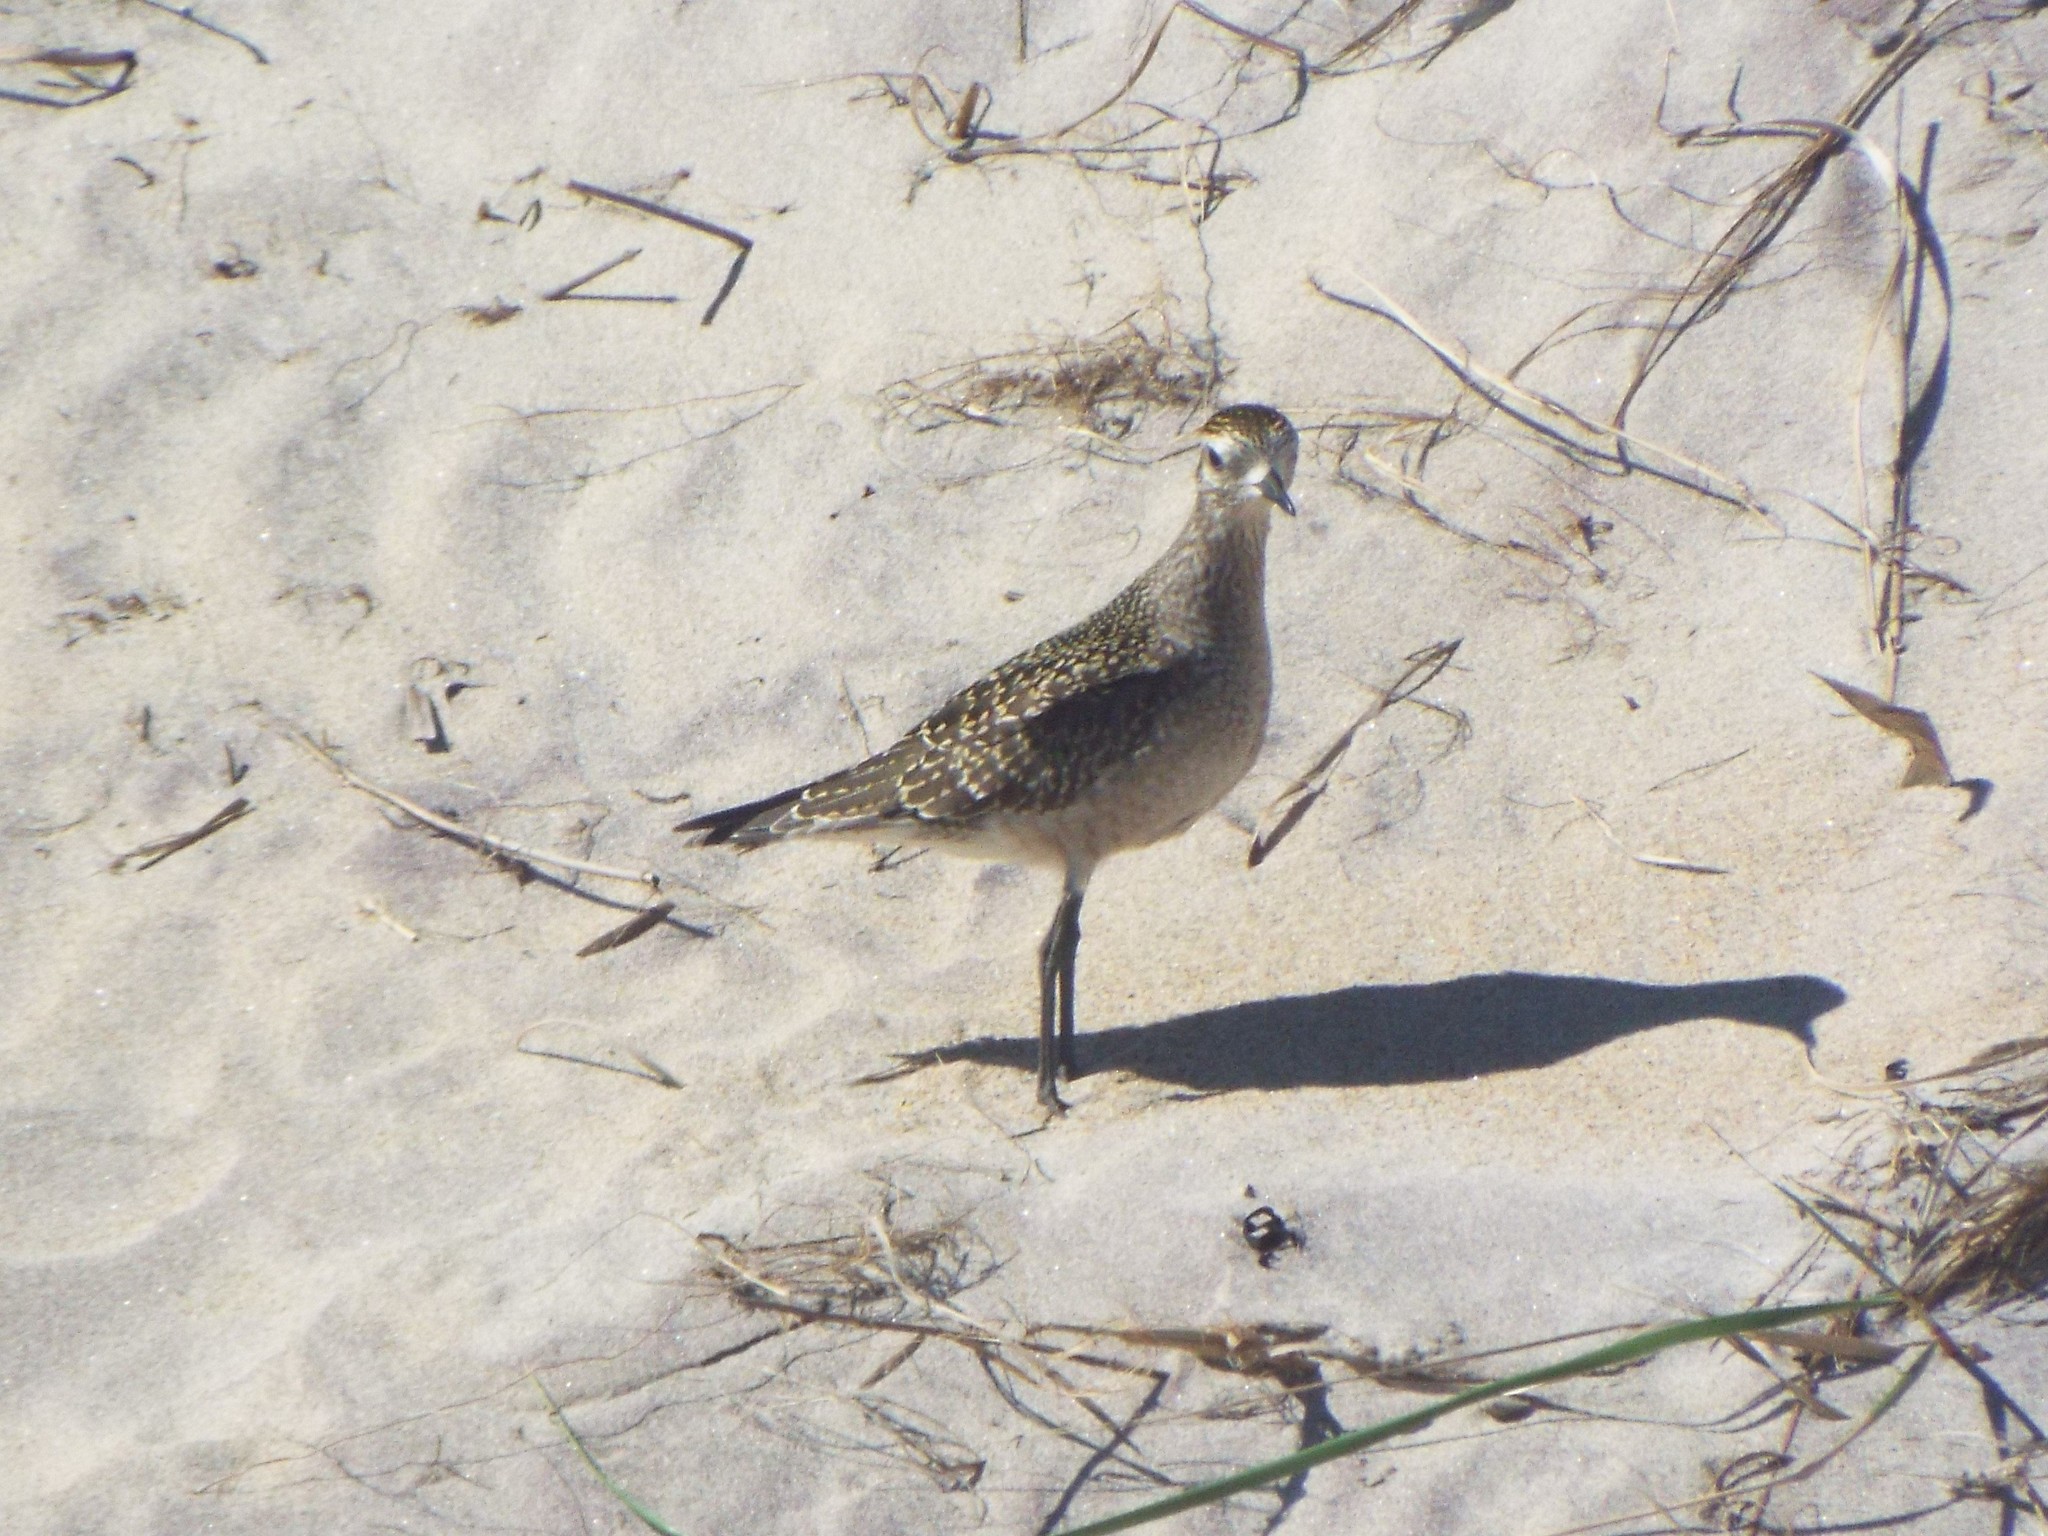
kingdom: Animalia
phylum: Chordata
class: Aves
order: Charadriiformes
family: Charadriidae
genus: Pluvialis
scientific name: Pluvialis dominica
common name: American golden plover
